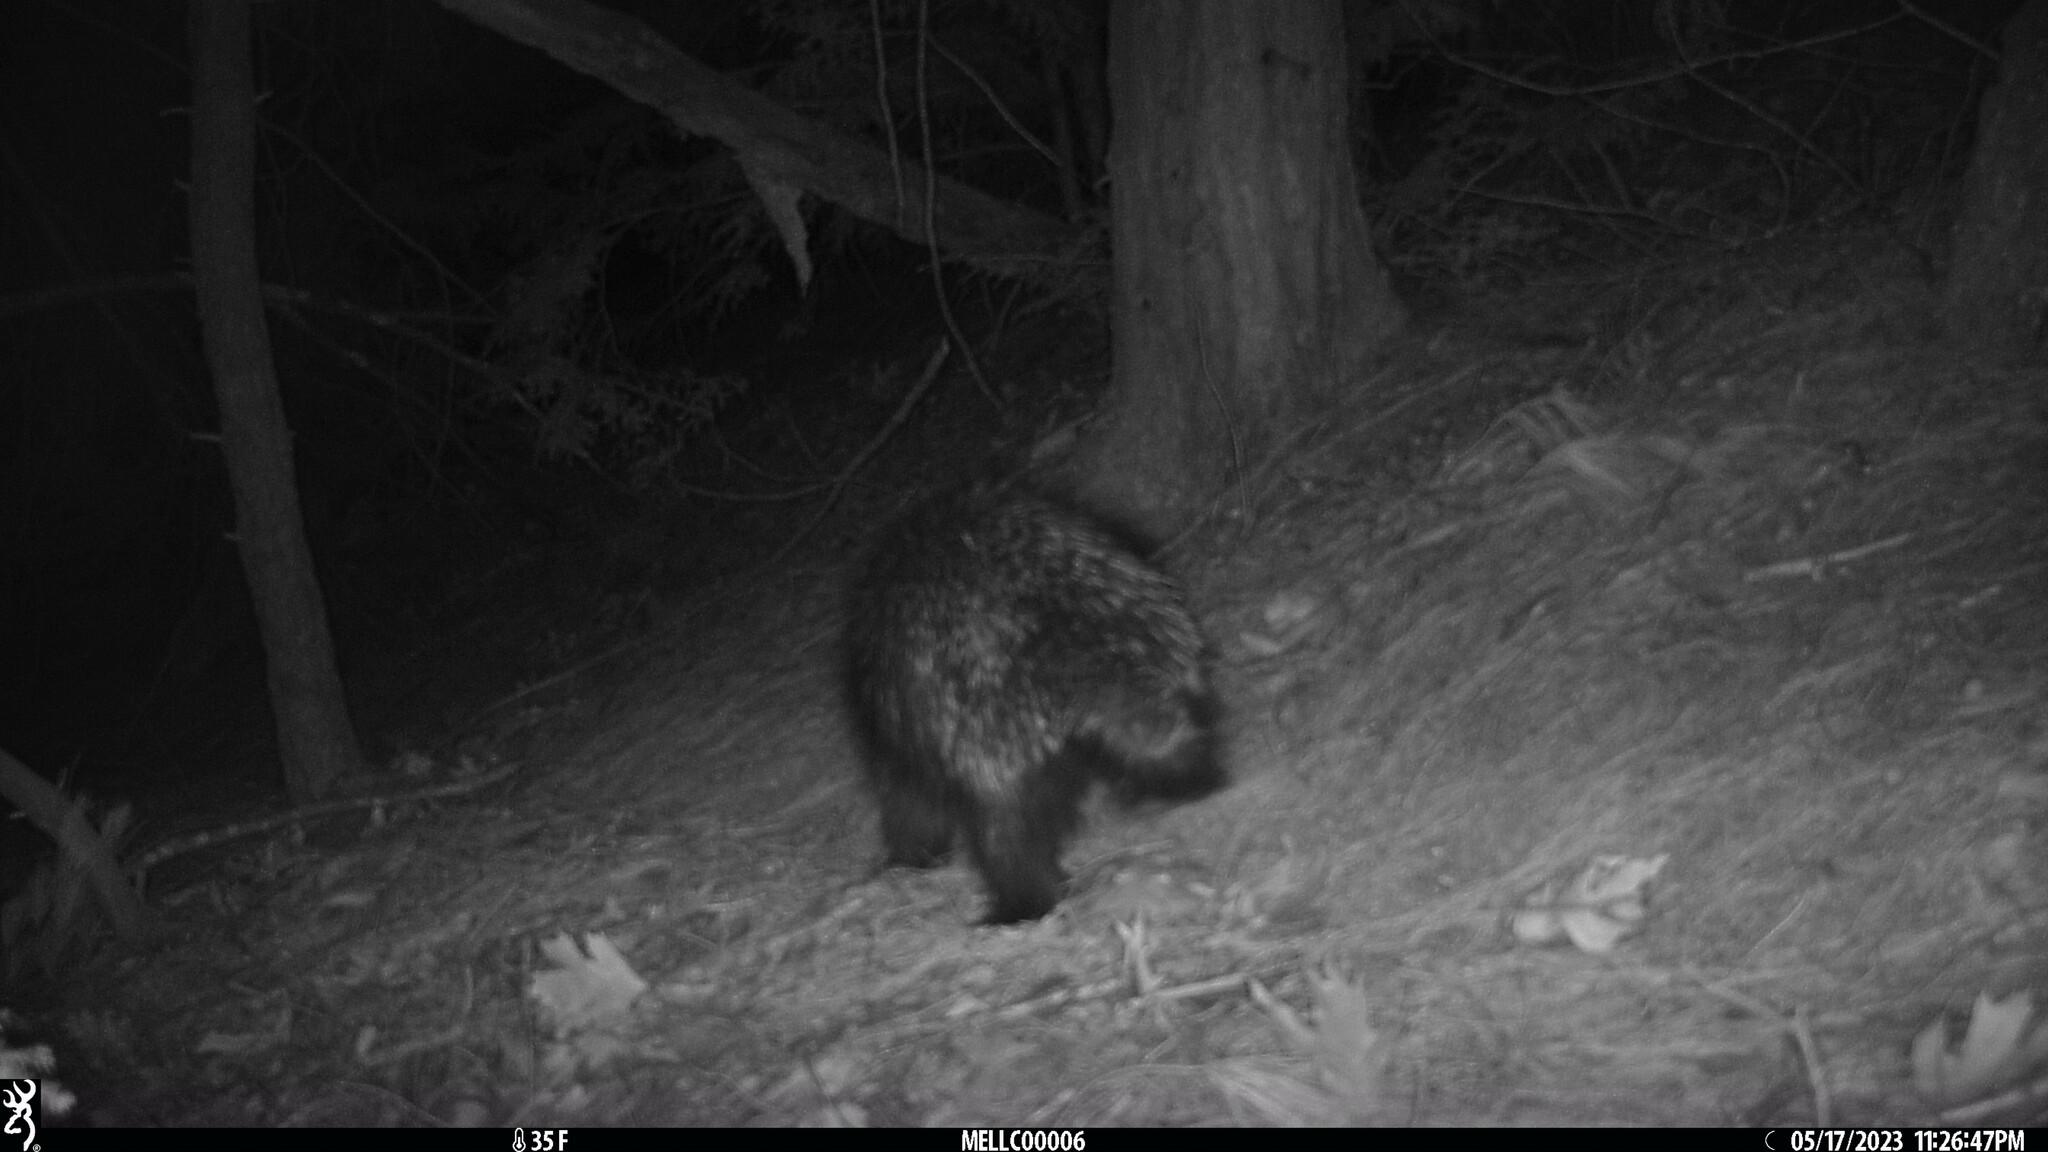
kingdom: Animalia
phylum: Chordata
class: Mammalia
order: Rodentia
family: Erethizontidae
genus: Erethizon
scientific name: Erethizon dorsatus
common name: North american porcupine
